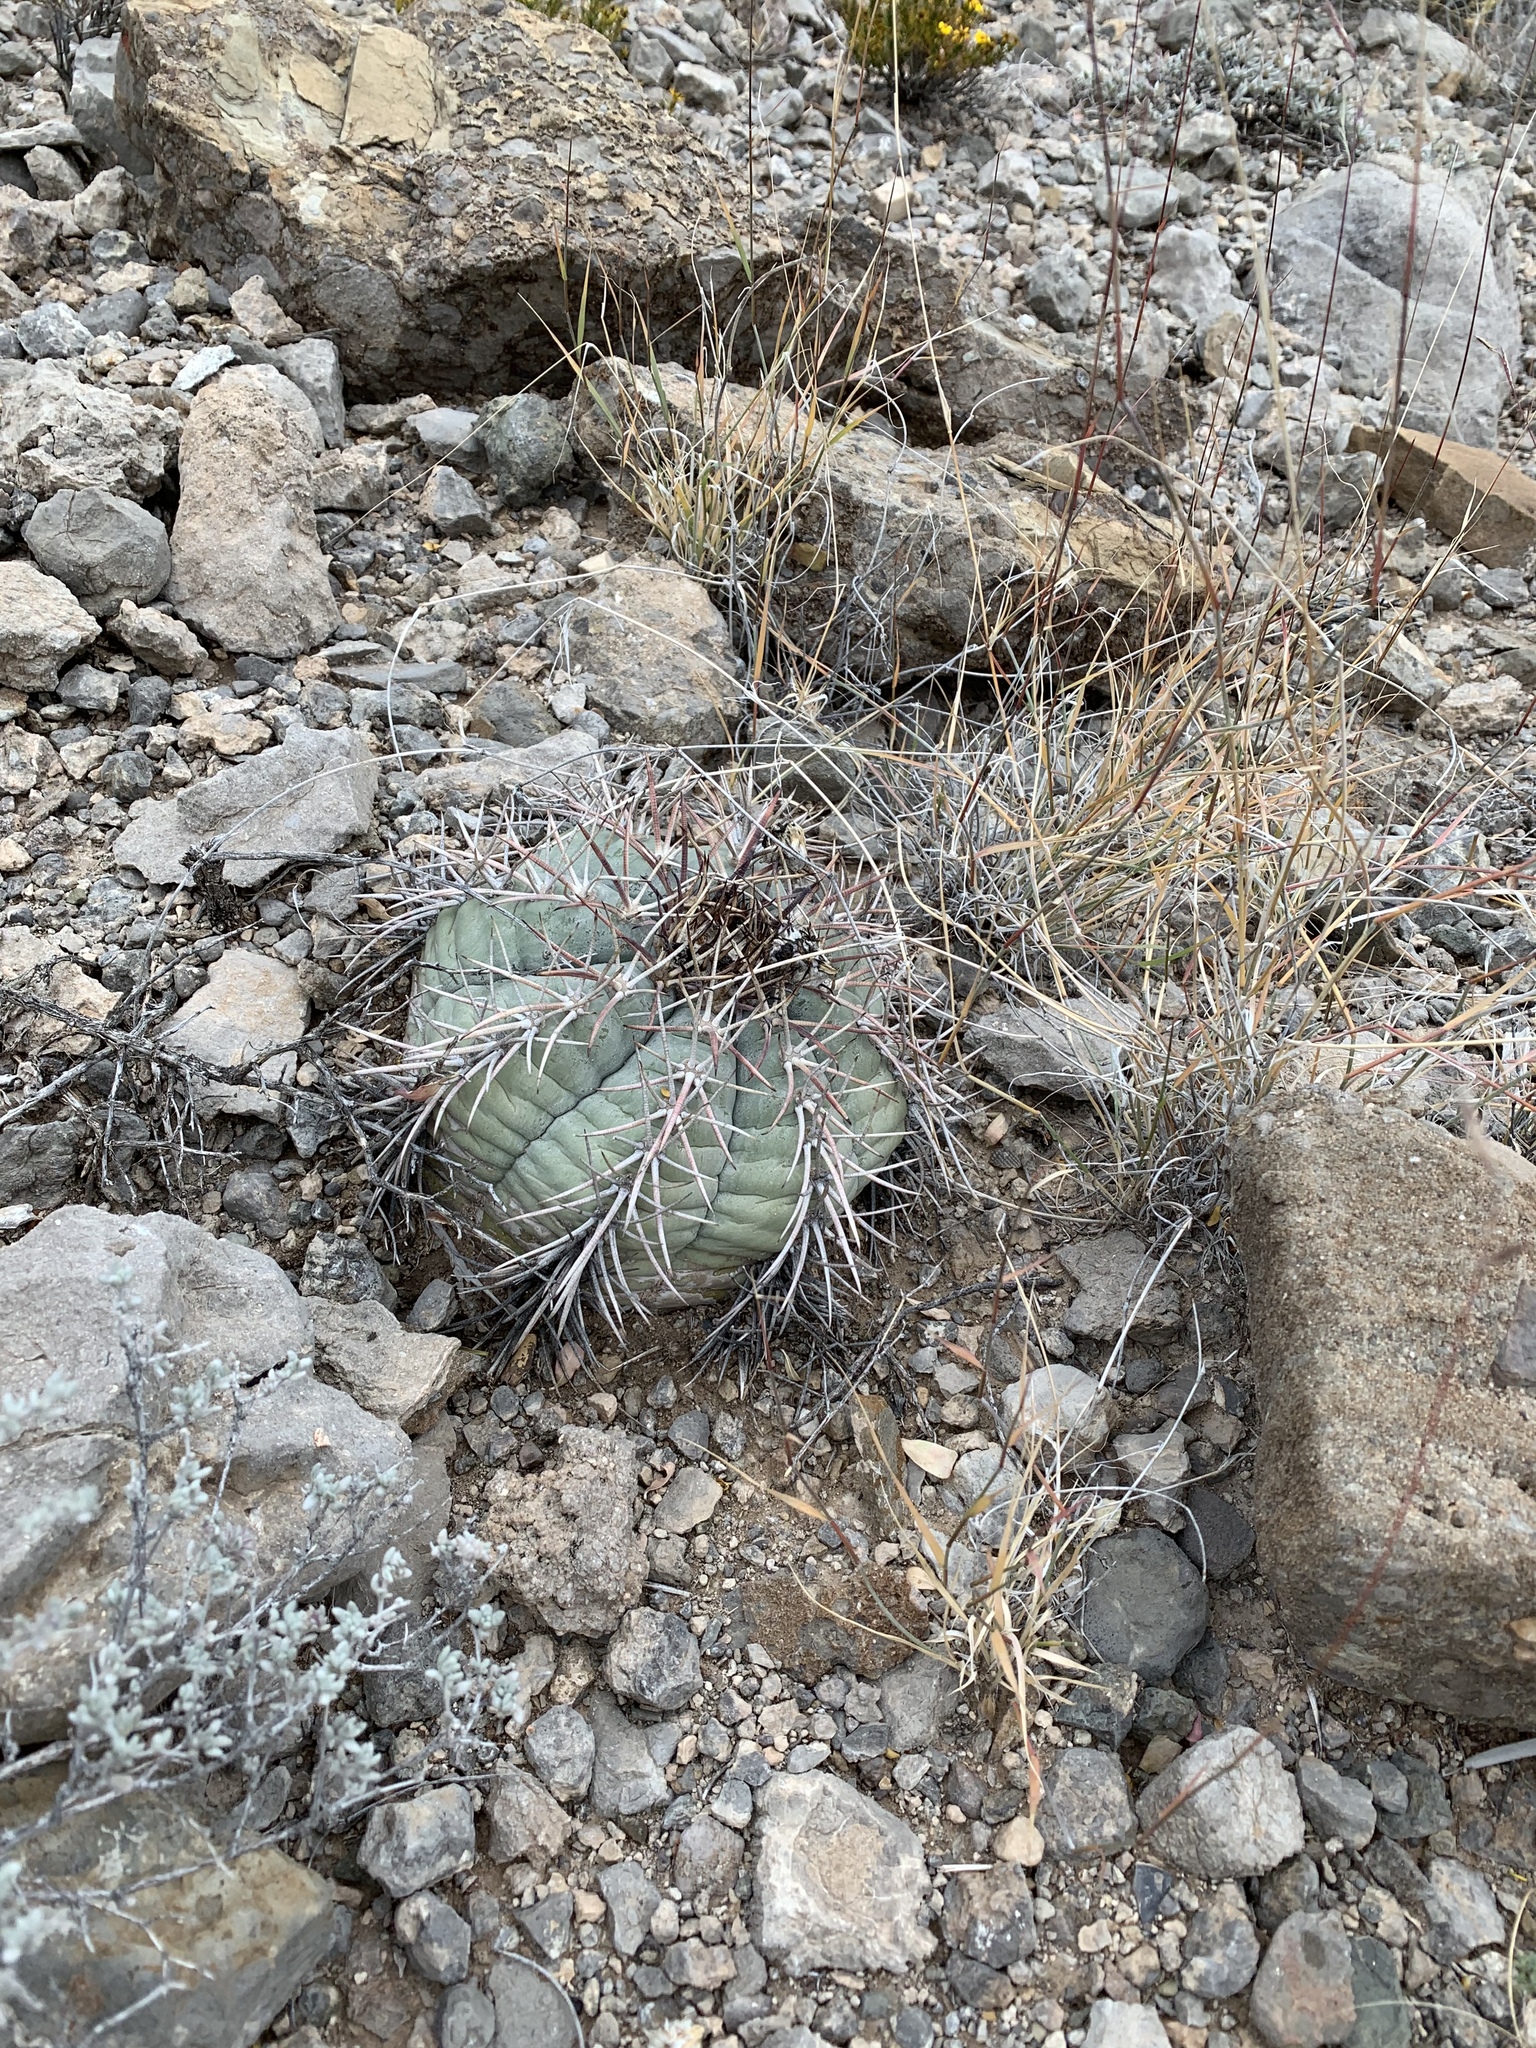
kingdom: Plantae
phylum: Tracheophyta
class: Magnoliopsida
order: Caryophyllales
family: Cactaceae
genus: Echinocactus
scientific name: Echinocactus horizonthalonius
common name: Devilshead
